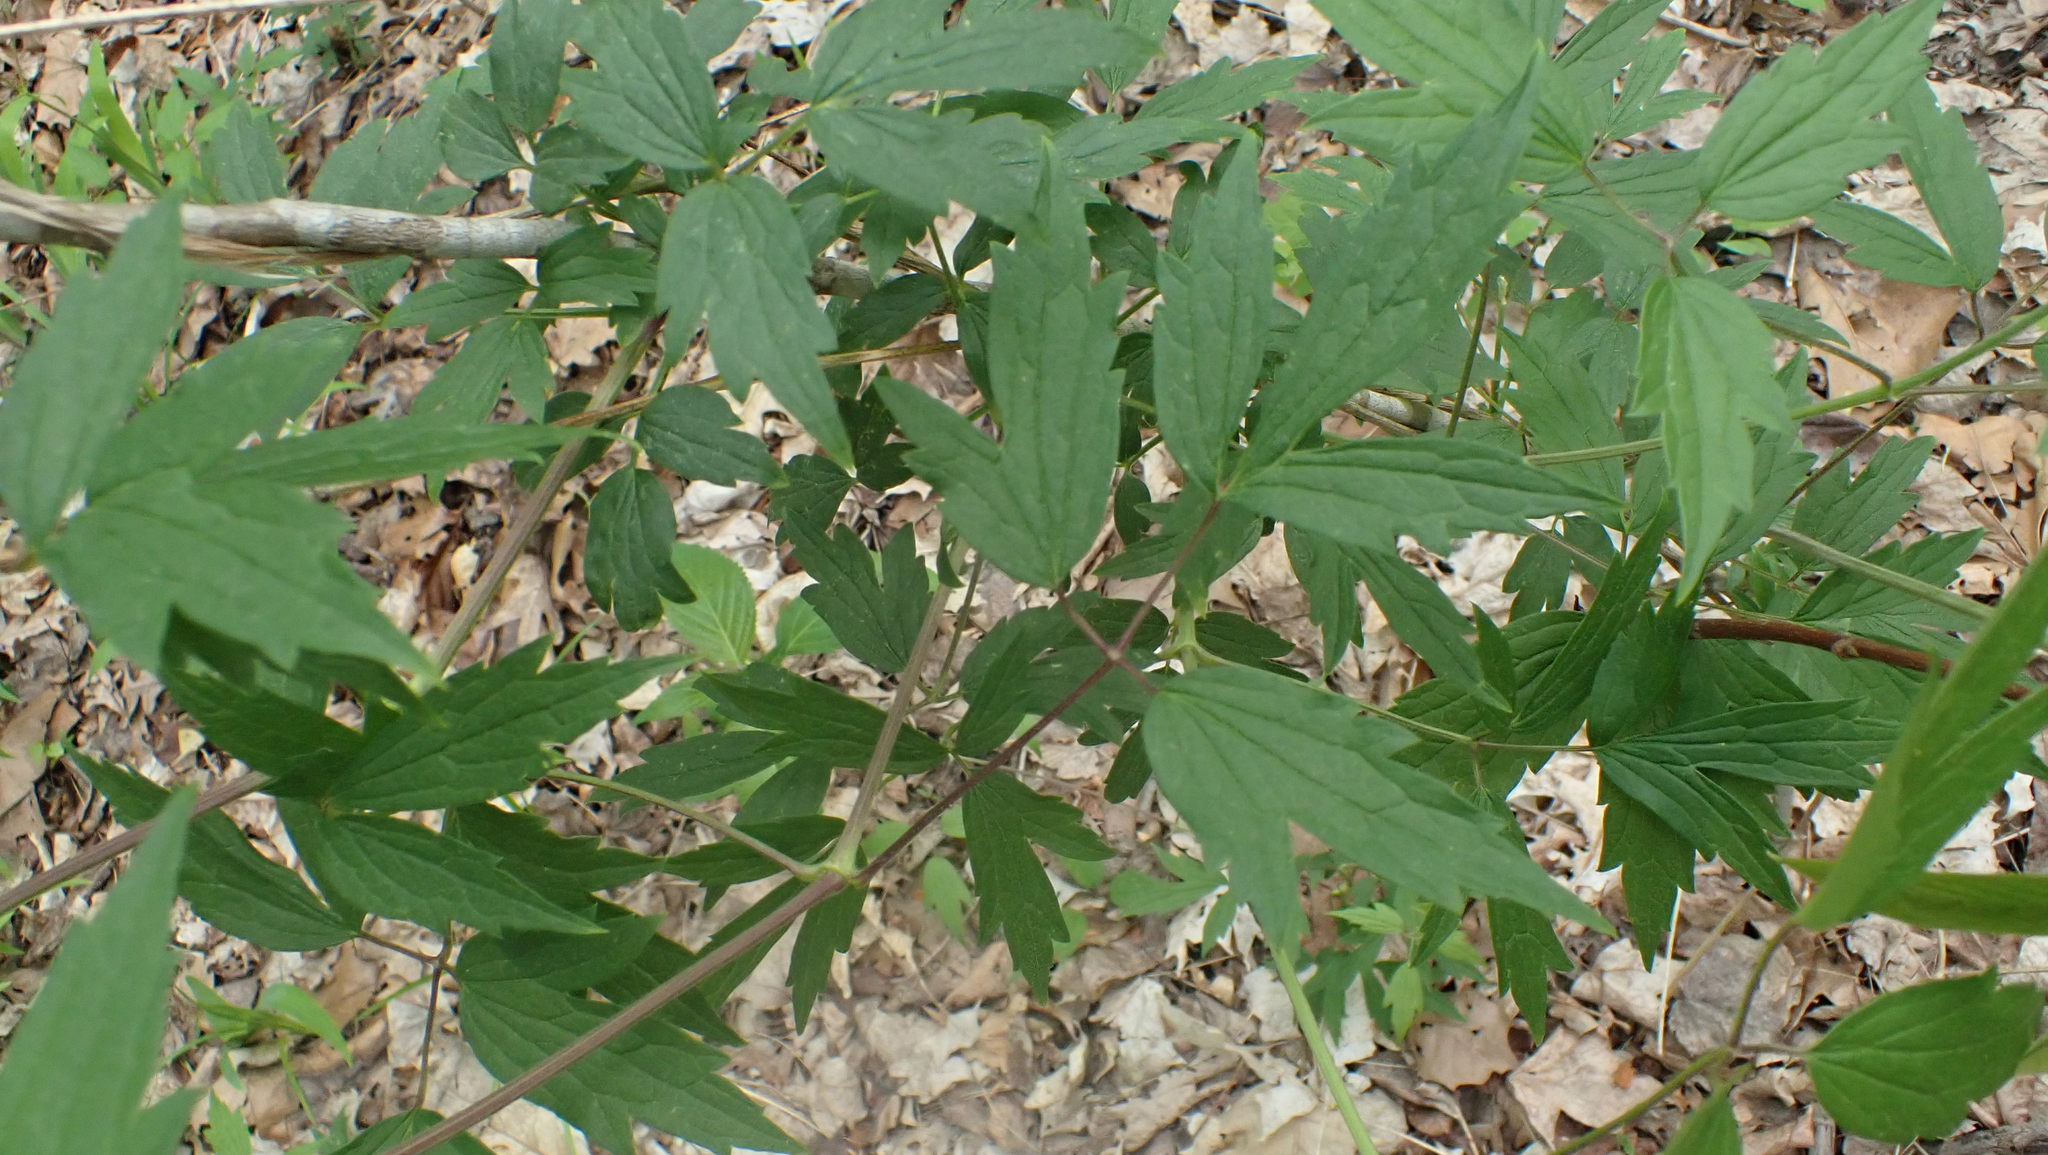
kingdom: Plantae
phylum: Tracheophyta
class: Magnoliopsida
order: Ranunculales
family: Ranunculaceae
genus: Clematis
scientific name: Clematis virginiana
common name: Virgin's-bower
